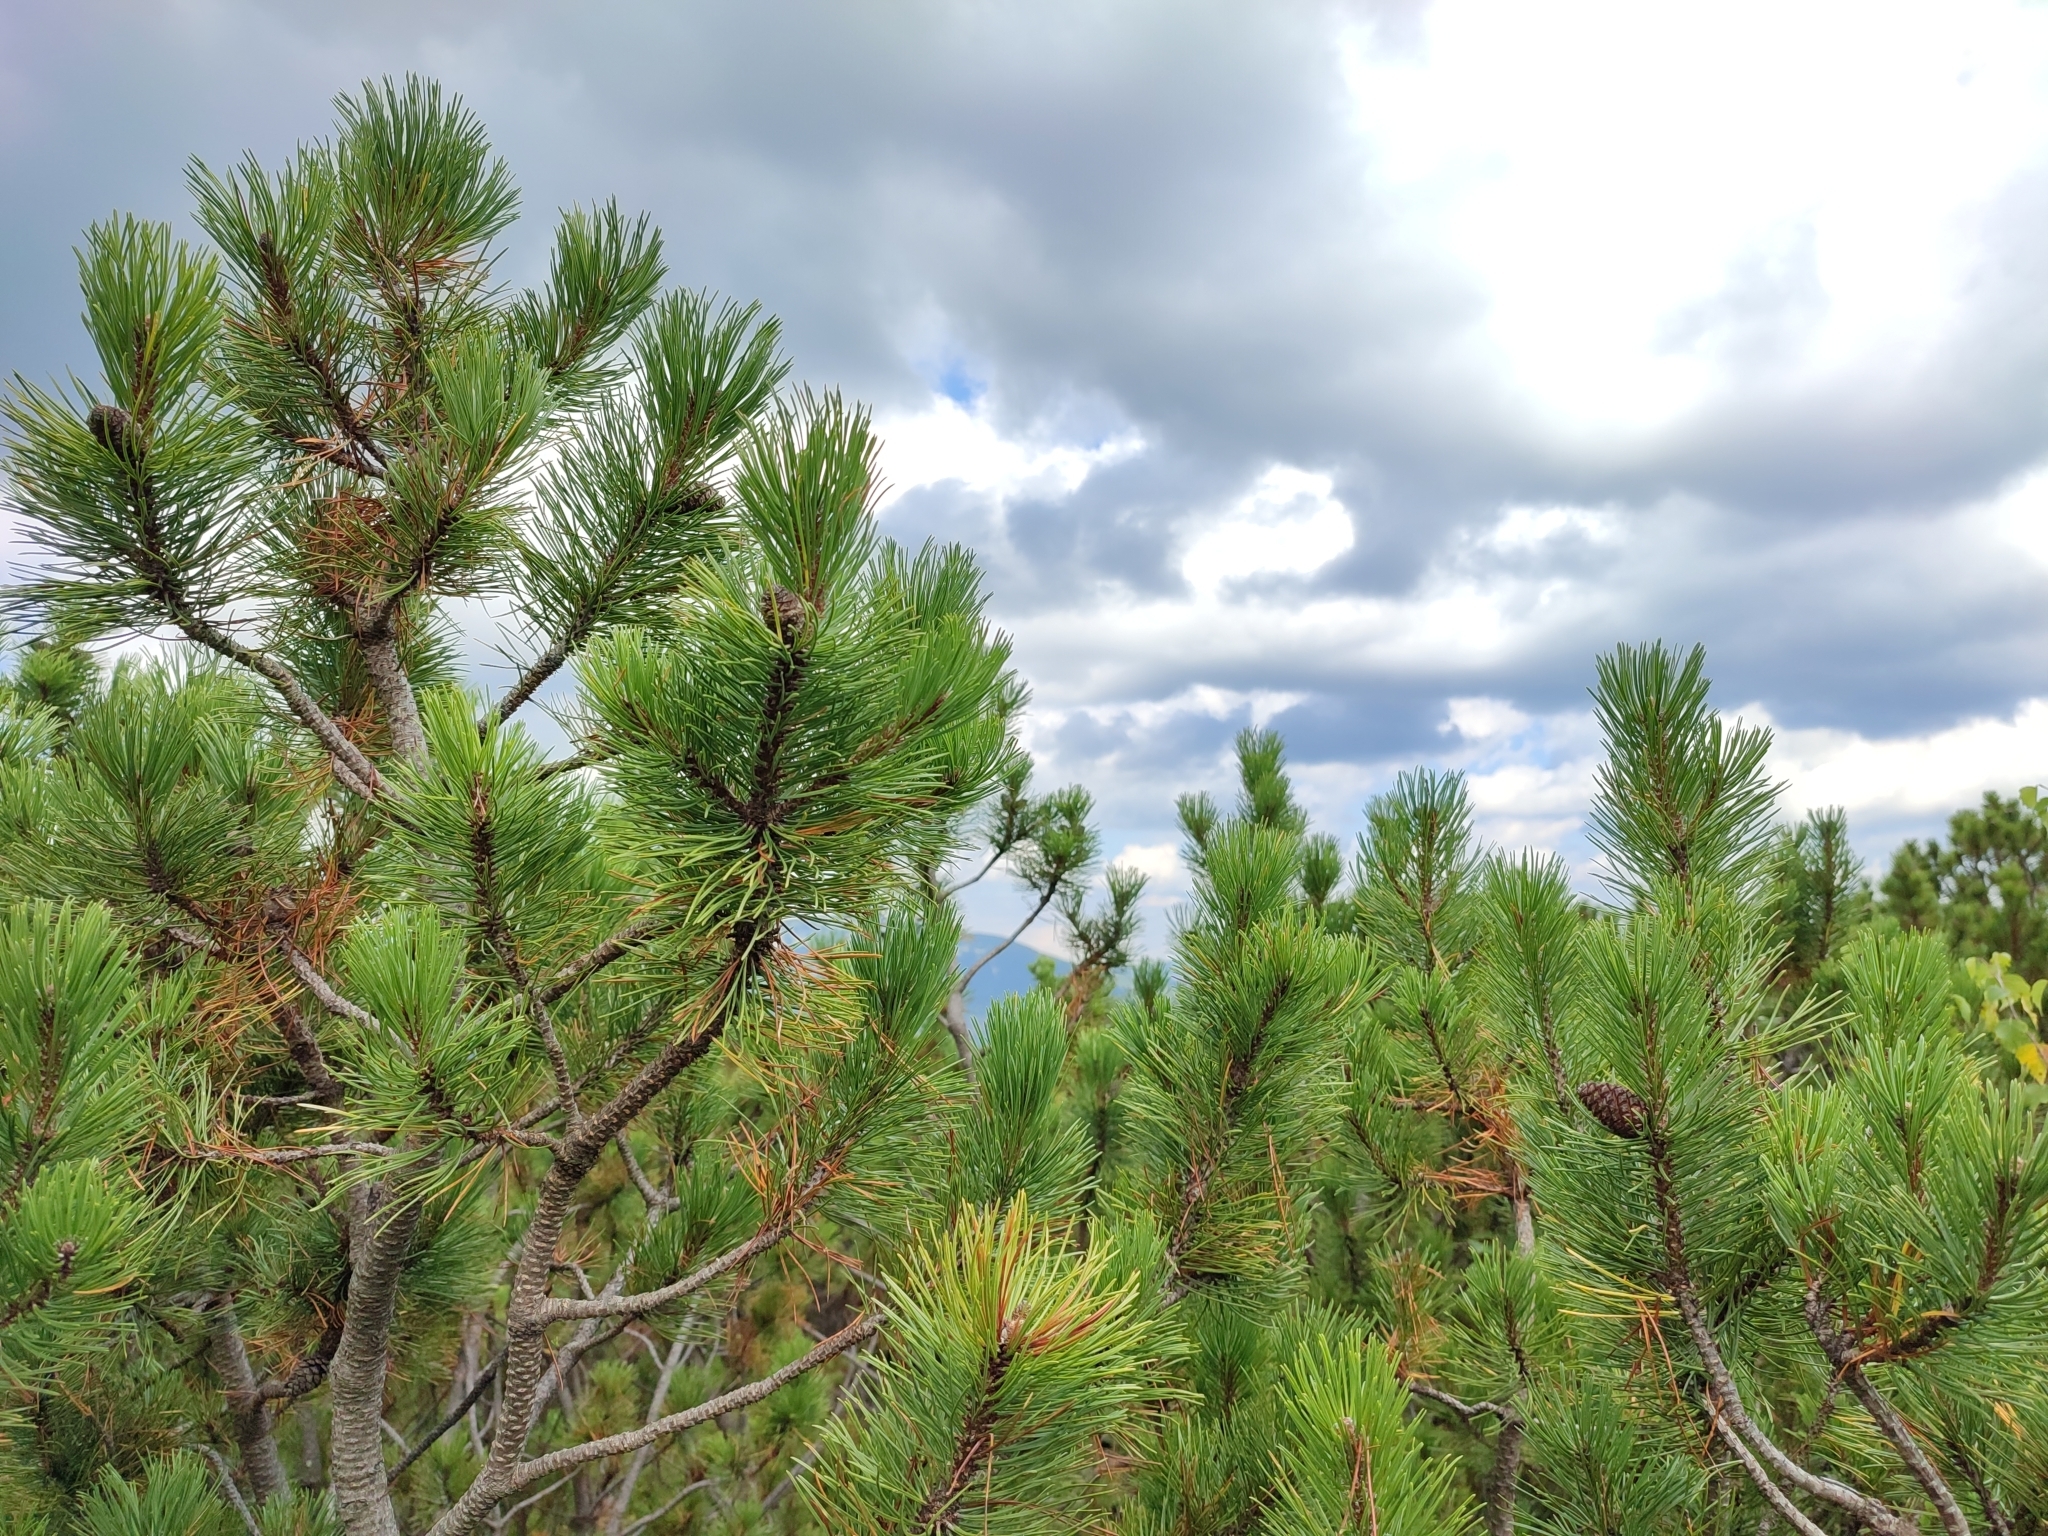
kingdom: Plantae
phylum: Tracheophyta
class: Pinopsida
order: Pinales
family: Pinaceae
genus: Pinus
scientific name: Pinus mugo
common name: Mugo pine
